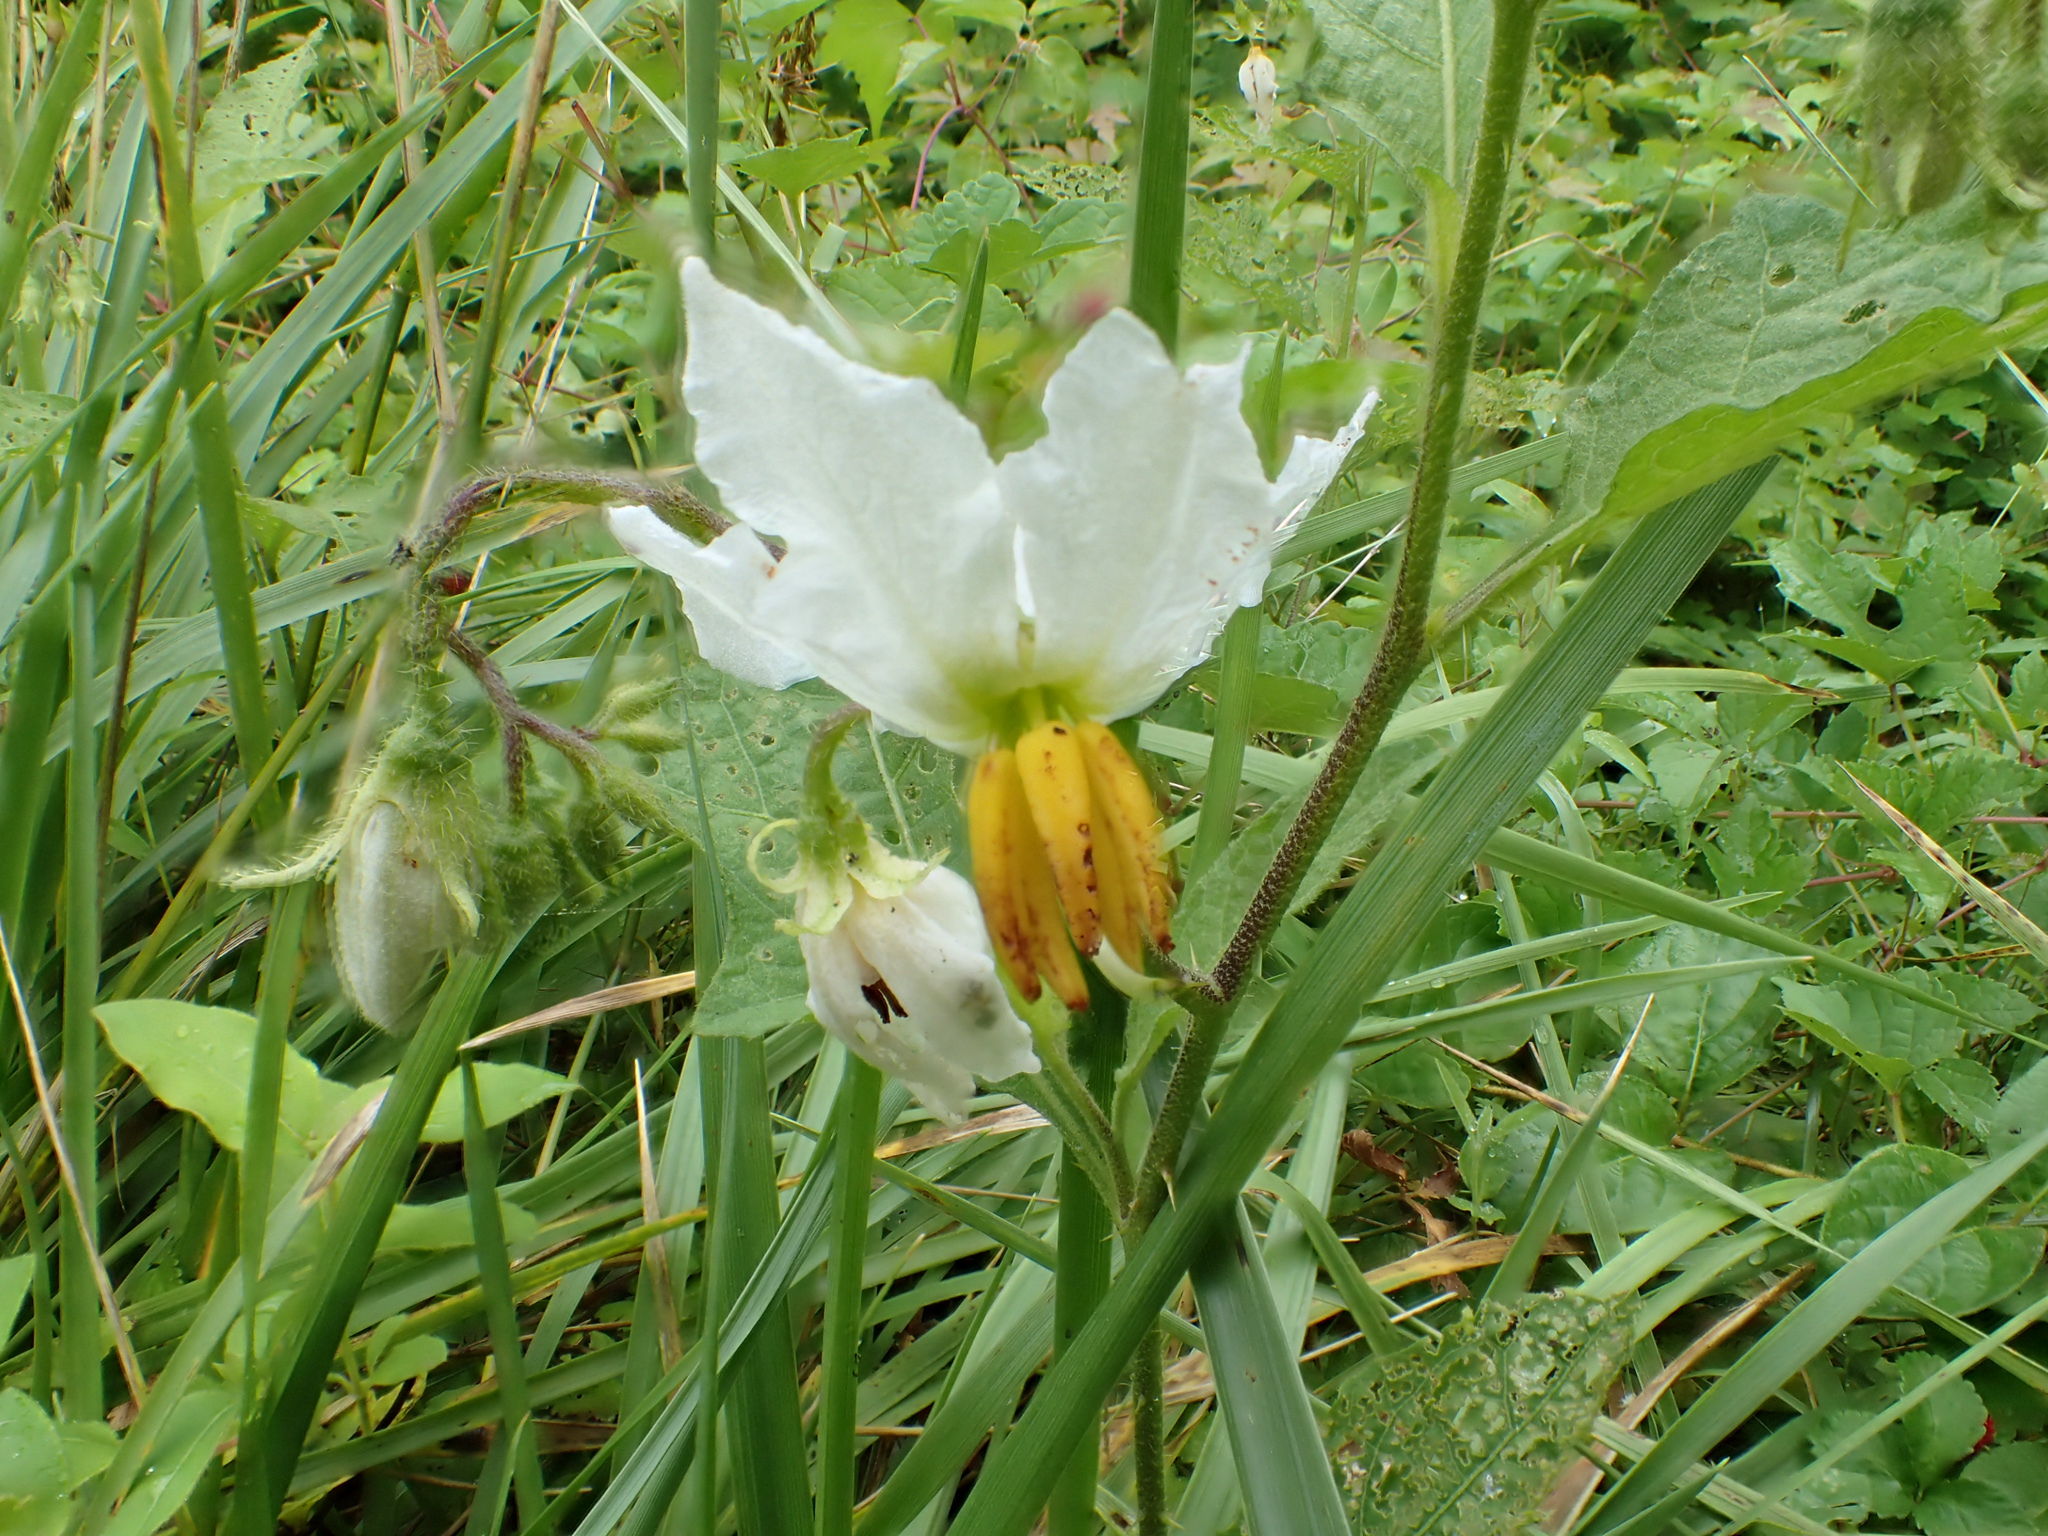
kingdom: Plantae
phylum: Tracheophyta
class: Magnoliopsida
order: Solanales
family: Solanaceae
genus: Solanum
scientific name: Solanum carolinense
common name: Horse-nettle
